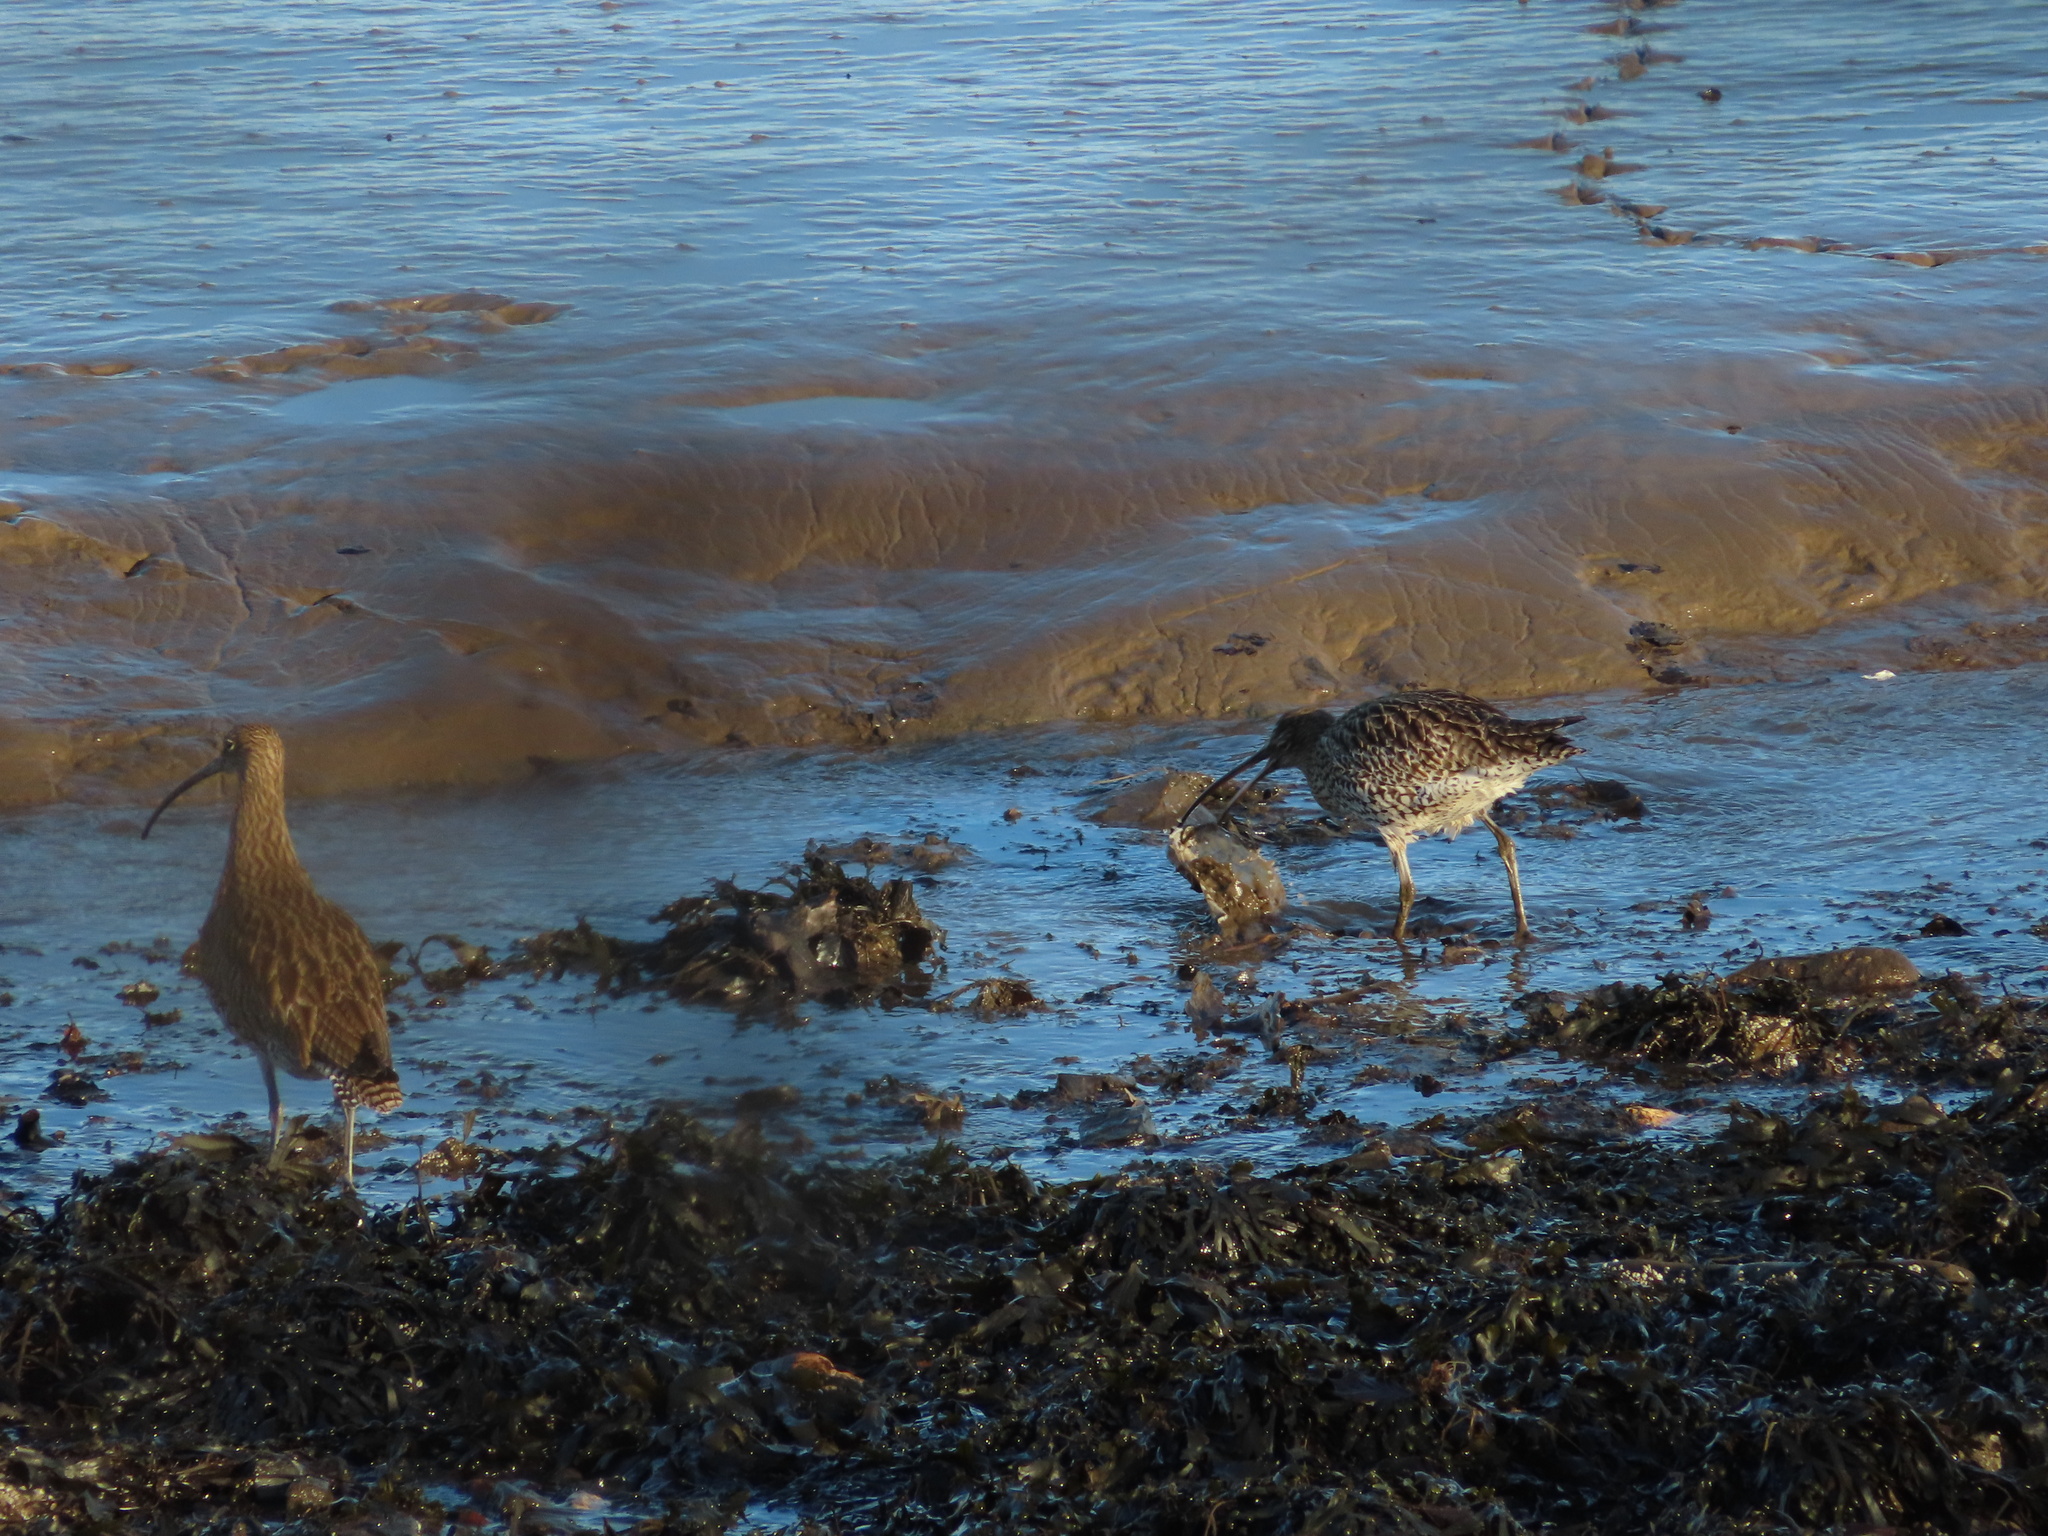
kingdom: Animalia
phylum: Chordata
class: Aves
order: Charadriiformes
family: Scolopacidae
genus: Numenius
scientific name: Numenius arquata
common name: Eurasian curlew
